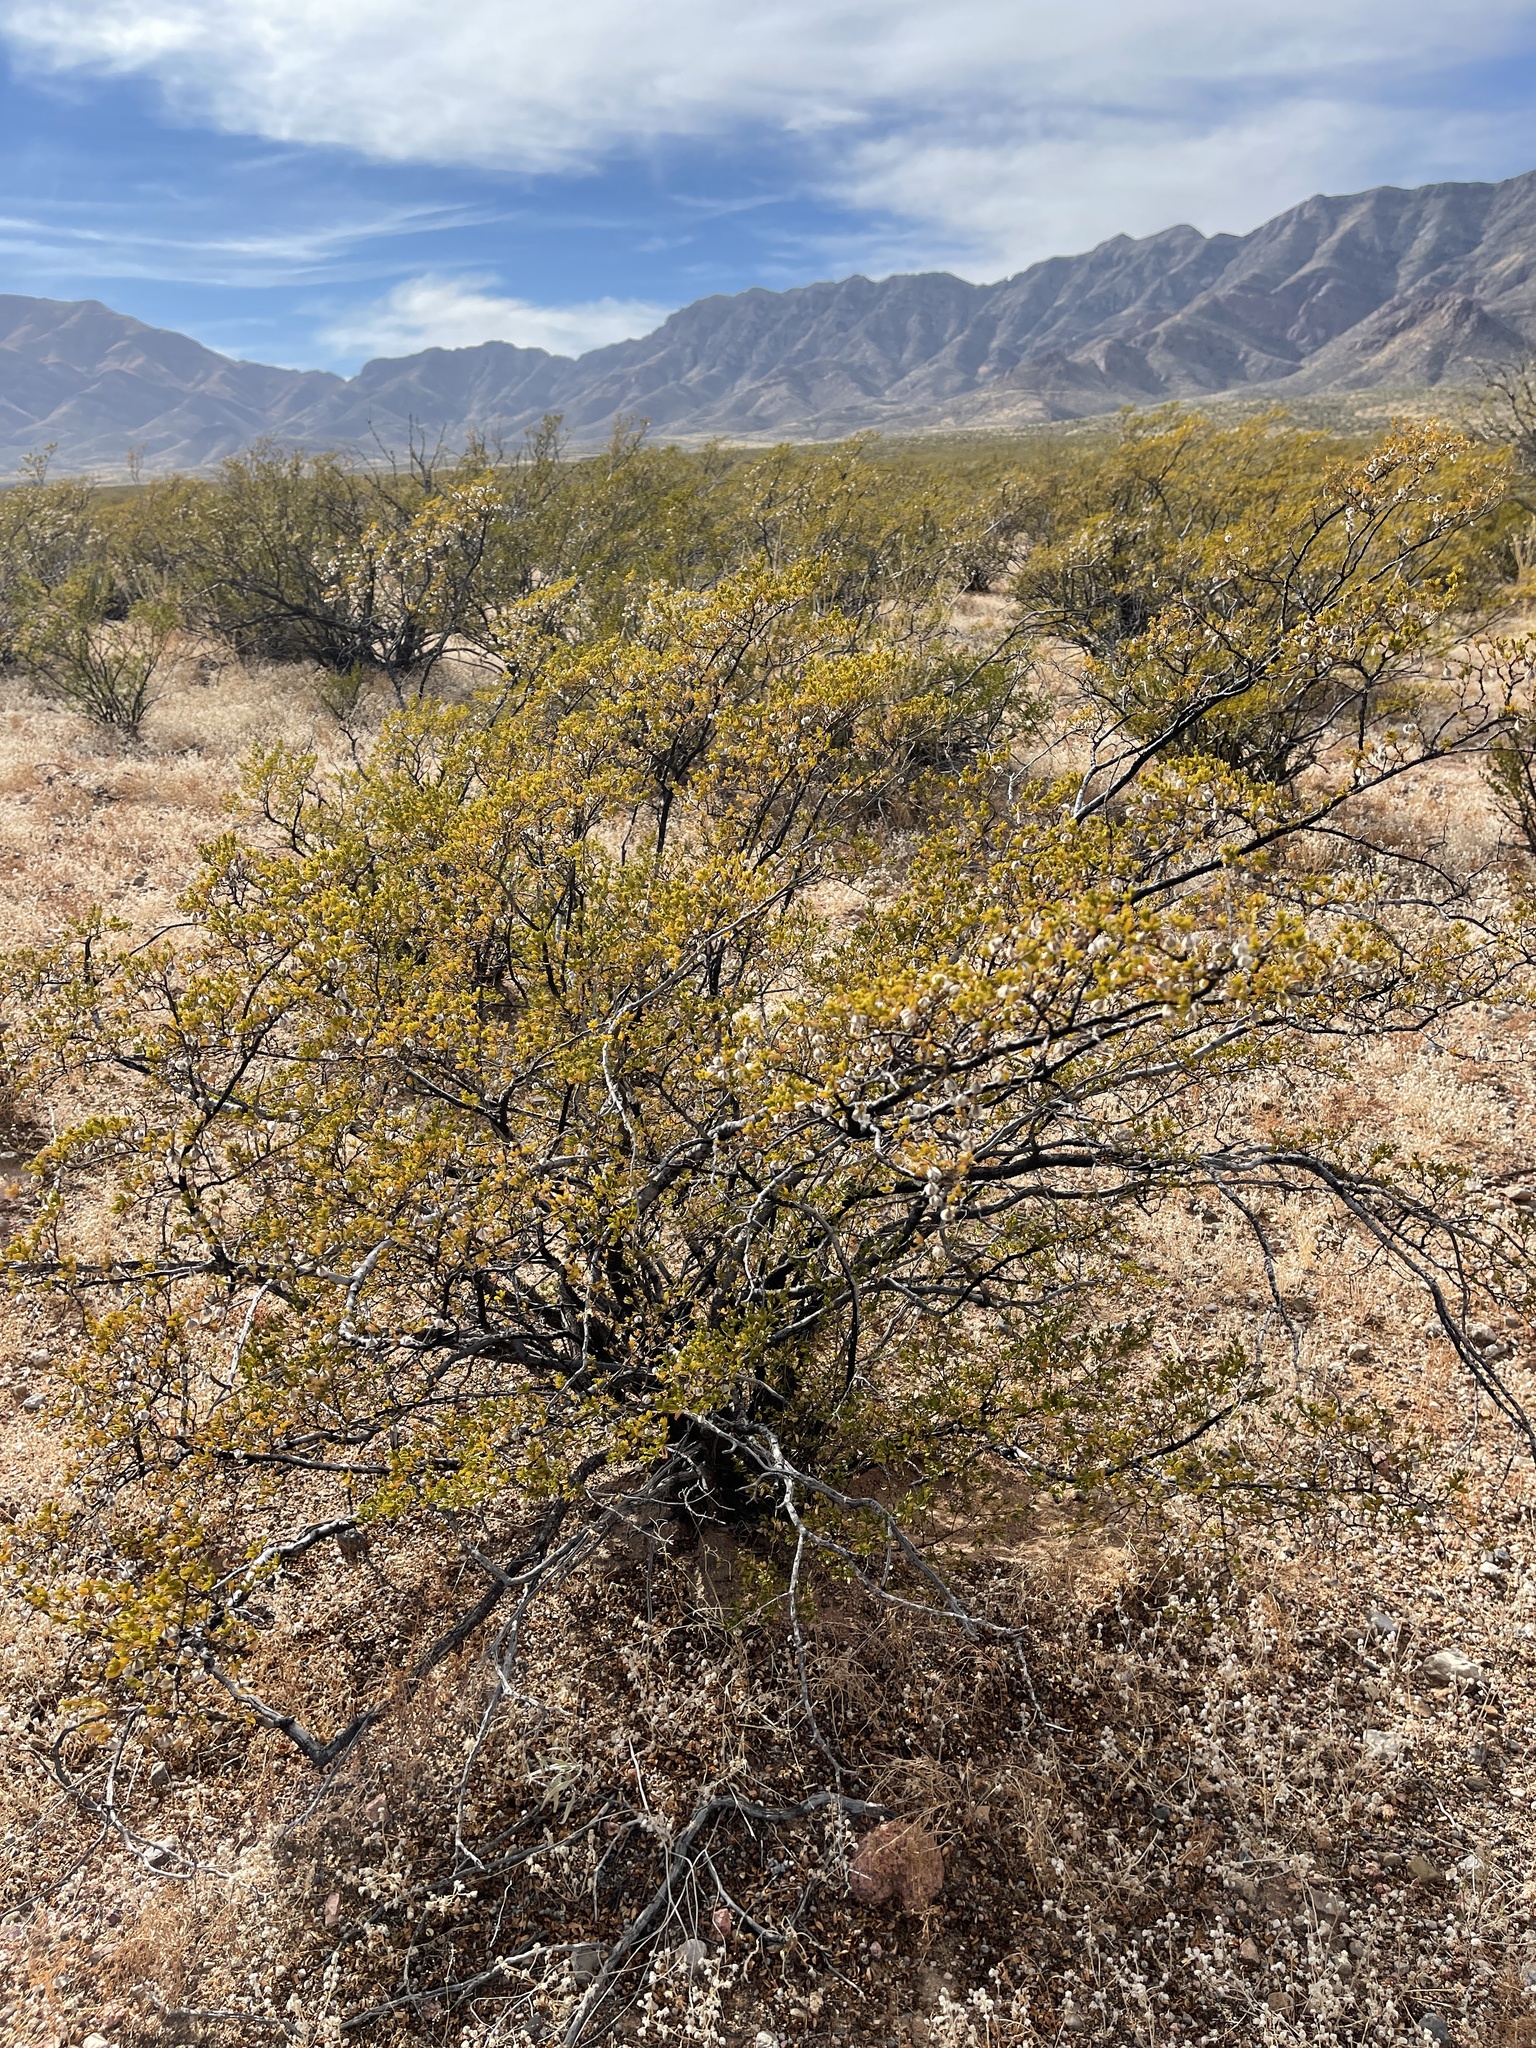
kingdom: Plantae
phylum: Tracheophyta
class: Magnoliopsida
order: Zygophyllales
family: Zygophyllaceae
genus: Larrea
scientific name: Larrea tridentata
